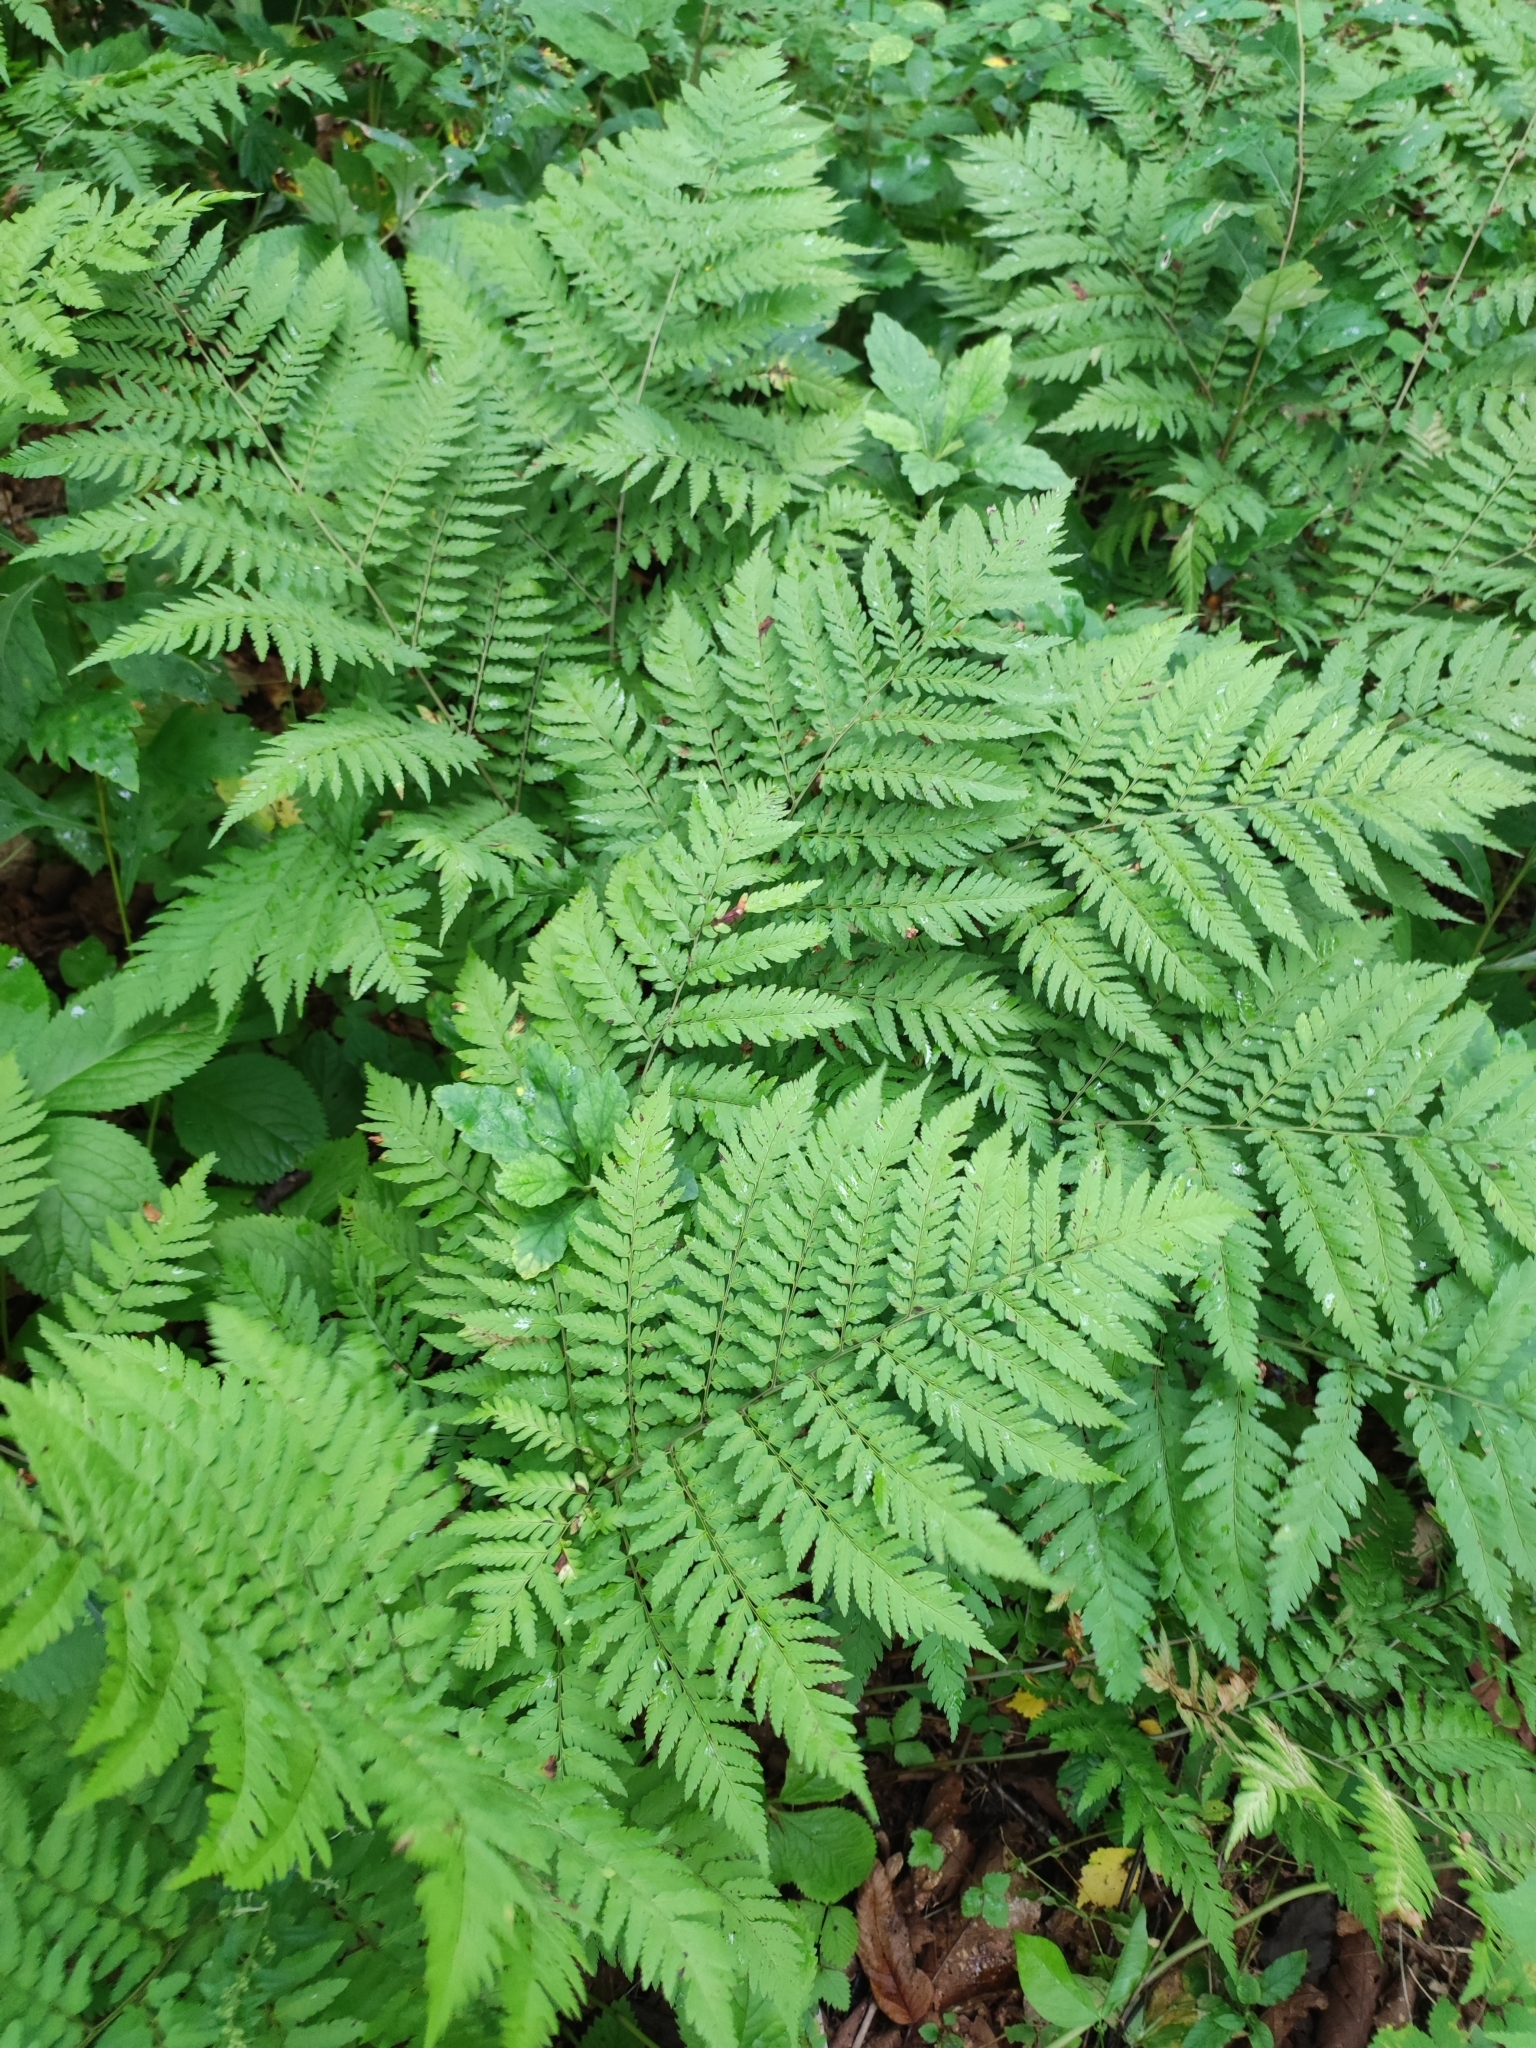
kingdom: Plantae
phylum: Tracheophyta
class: Polypodiopsida
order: Polypodiales
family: Dryopteridaceae
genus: Dryopteris
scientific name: Dryopteris goeringiana
